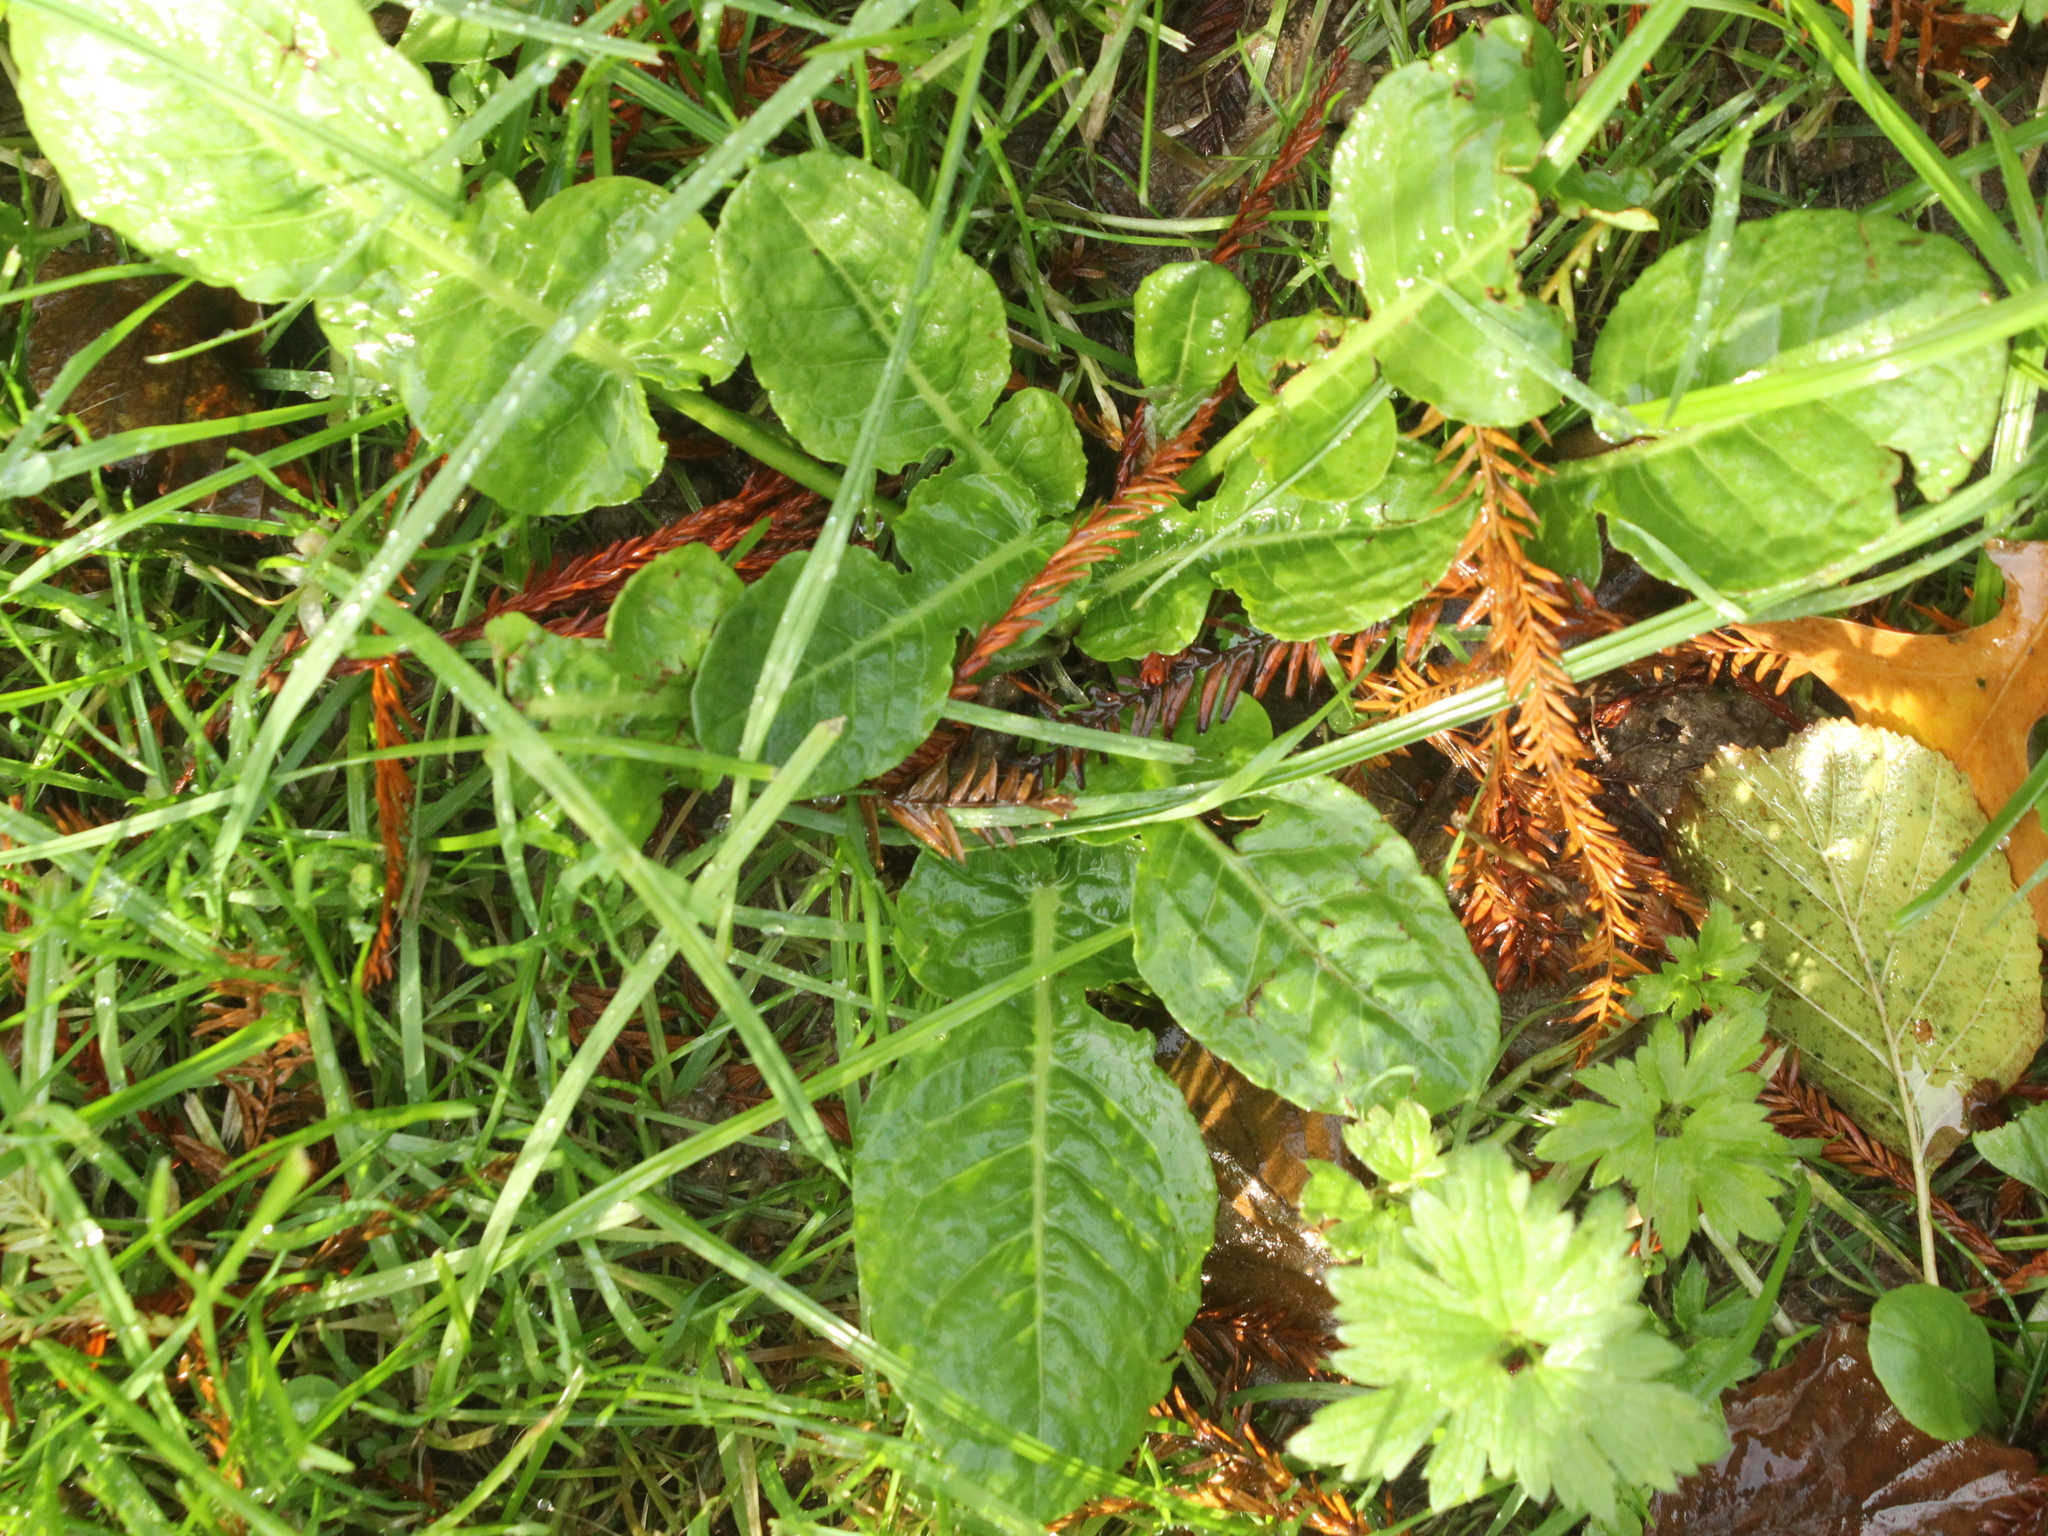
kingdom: Plantae
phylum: Tracheophyta
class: Magnoliopsida
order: Caryophyllales
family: Polygonaceae
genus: Rumex
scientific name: Rumex pulcher
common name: Fiddle dock
